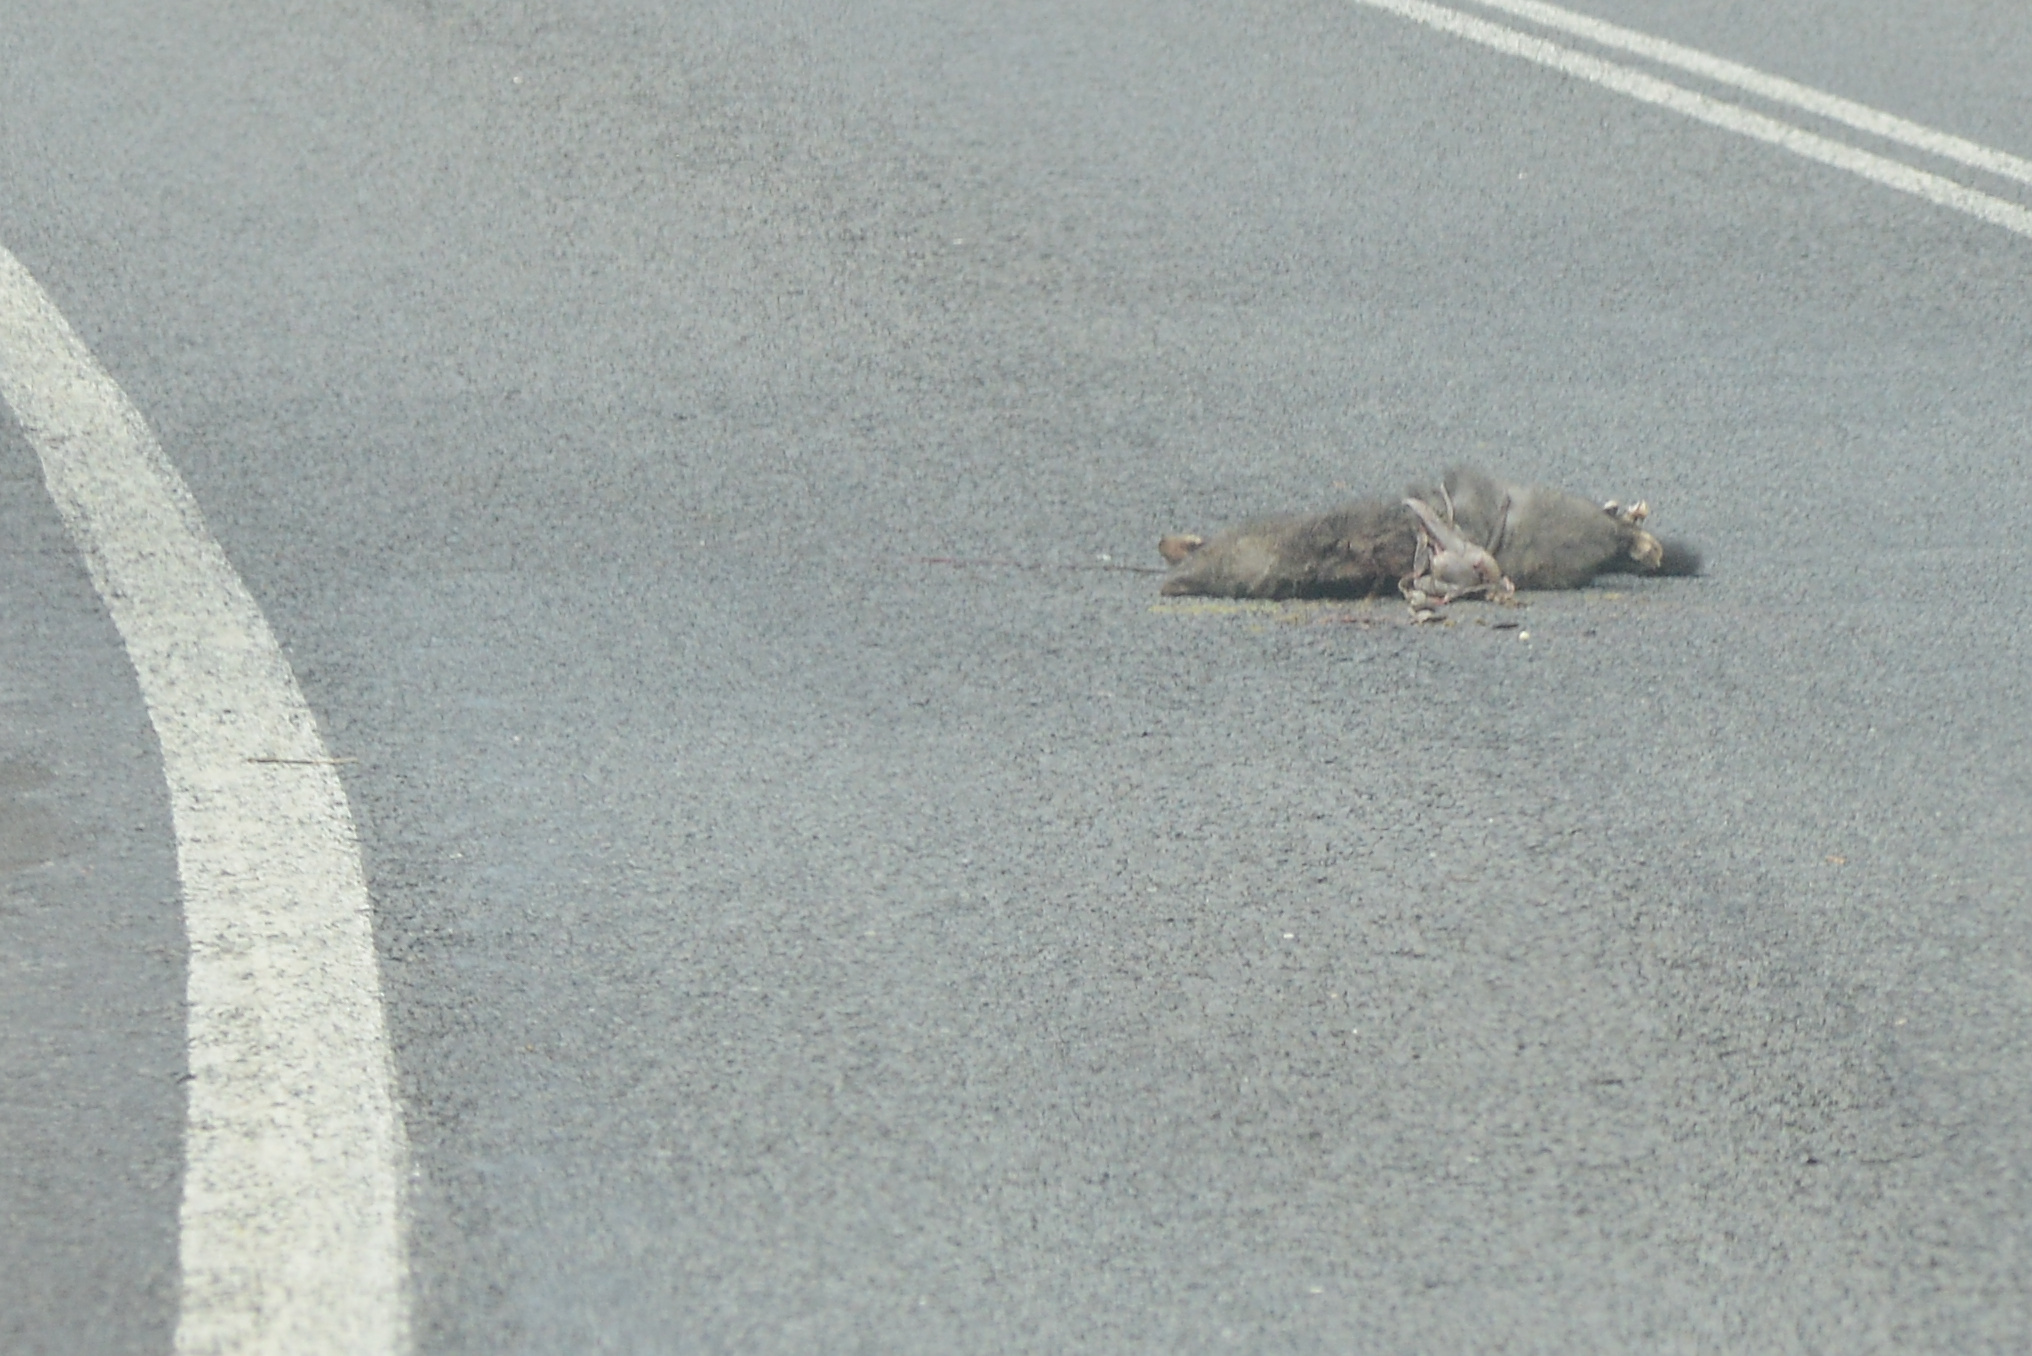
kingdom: Animalia
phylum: Chordata
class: Mammalia
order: Diprotodontia
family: Phalangeridae
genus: Trichosurus
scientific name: Trichosurus vulpecula
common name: Common brushtail
